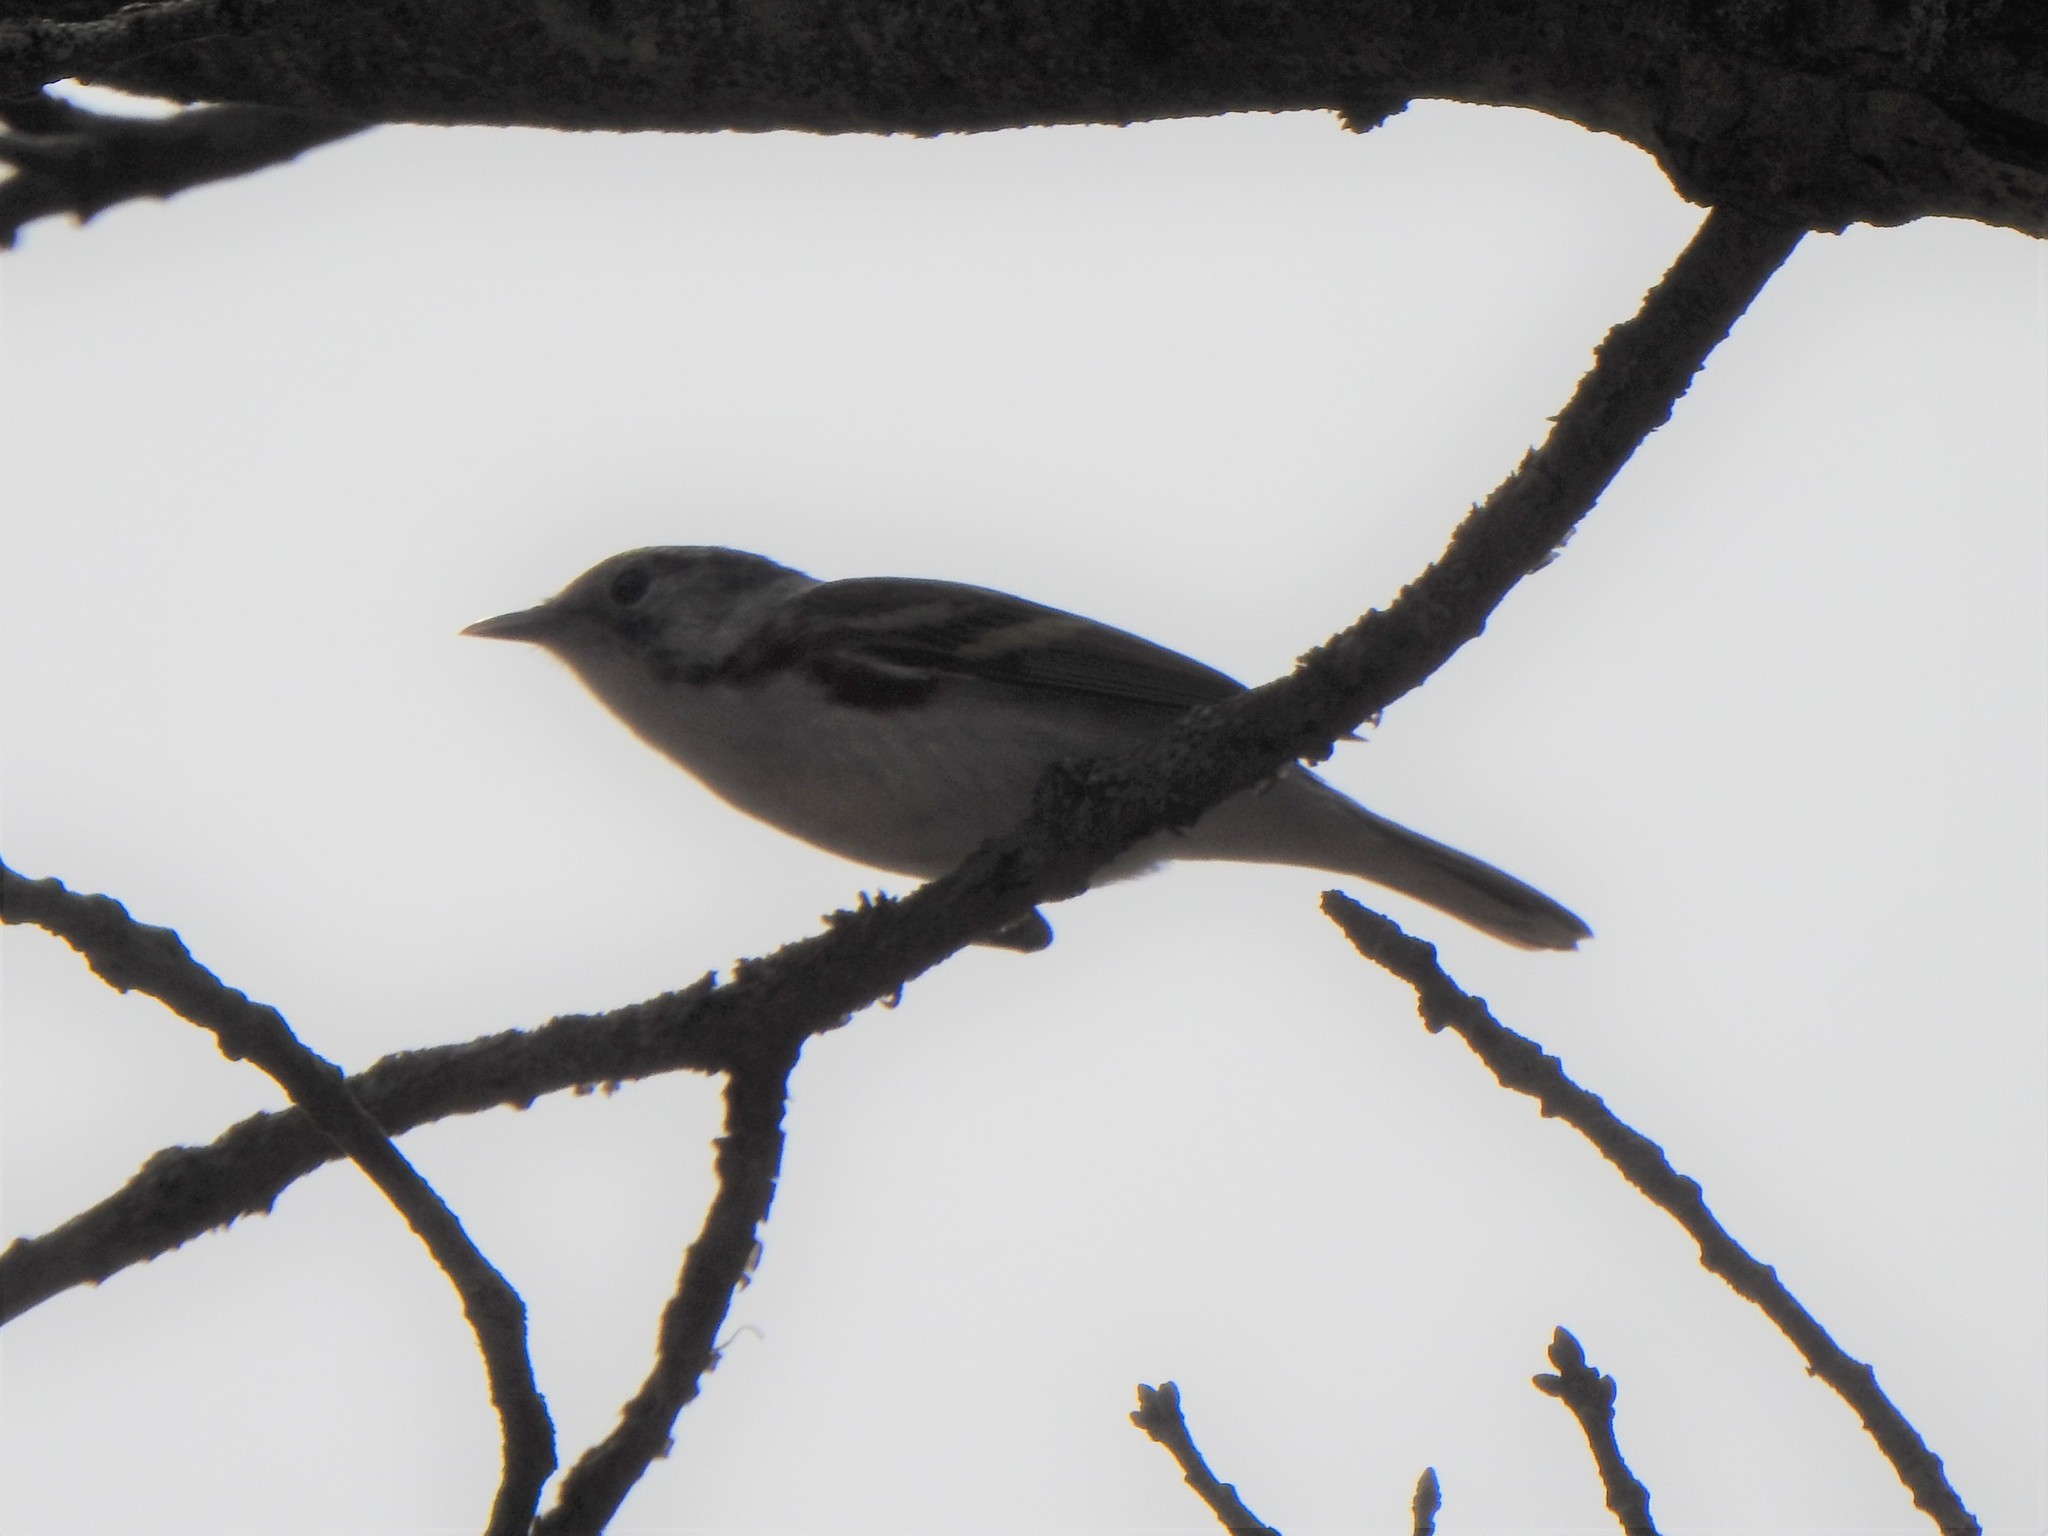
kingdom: Animalia
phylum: Chordata
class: Aves
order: Passeriformes
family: Parulidae
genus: Setophaga
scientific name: Setophaga pensylvanica
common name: Chestnut-sided warbler
